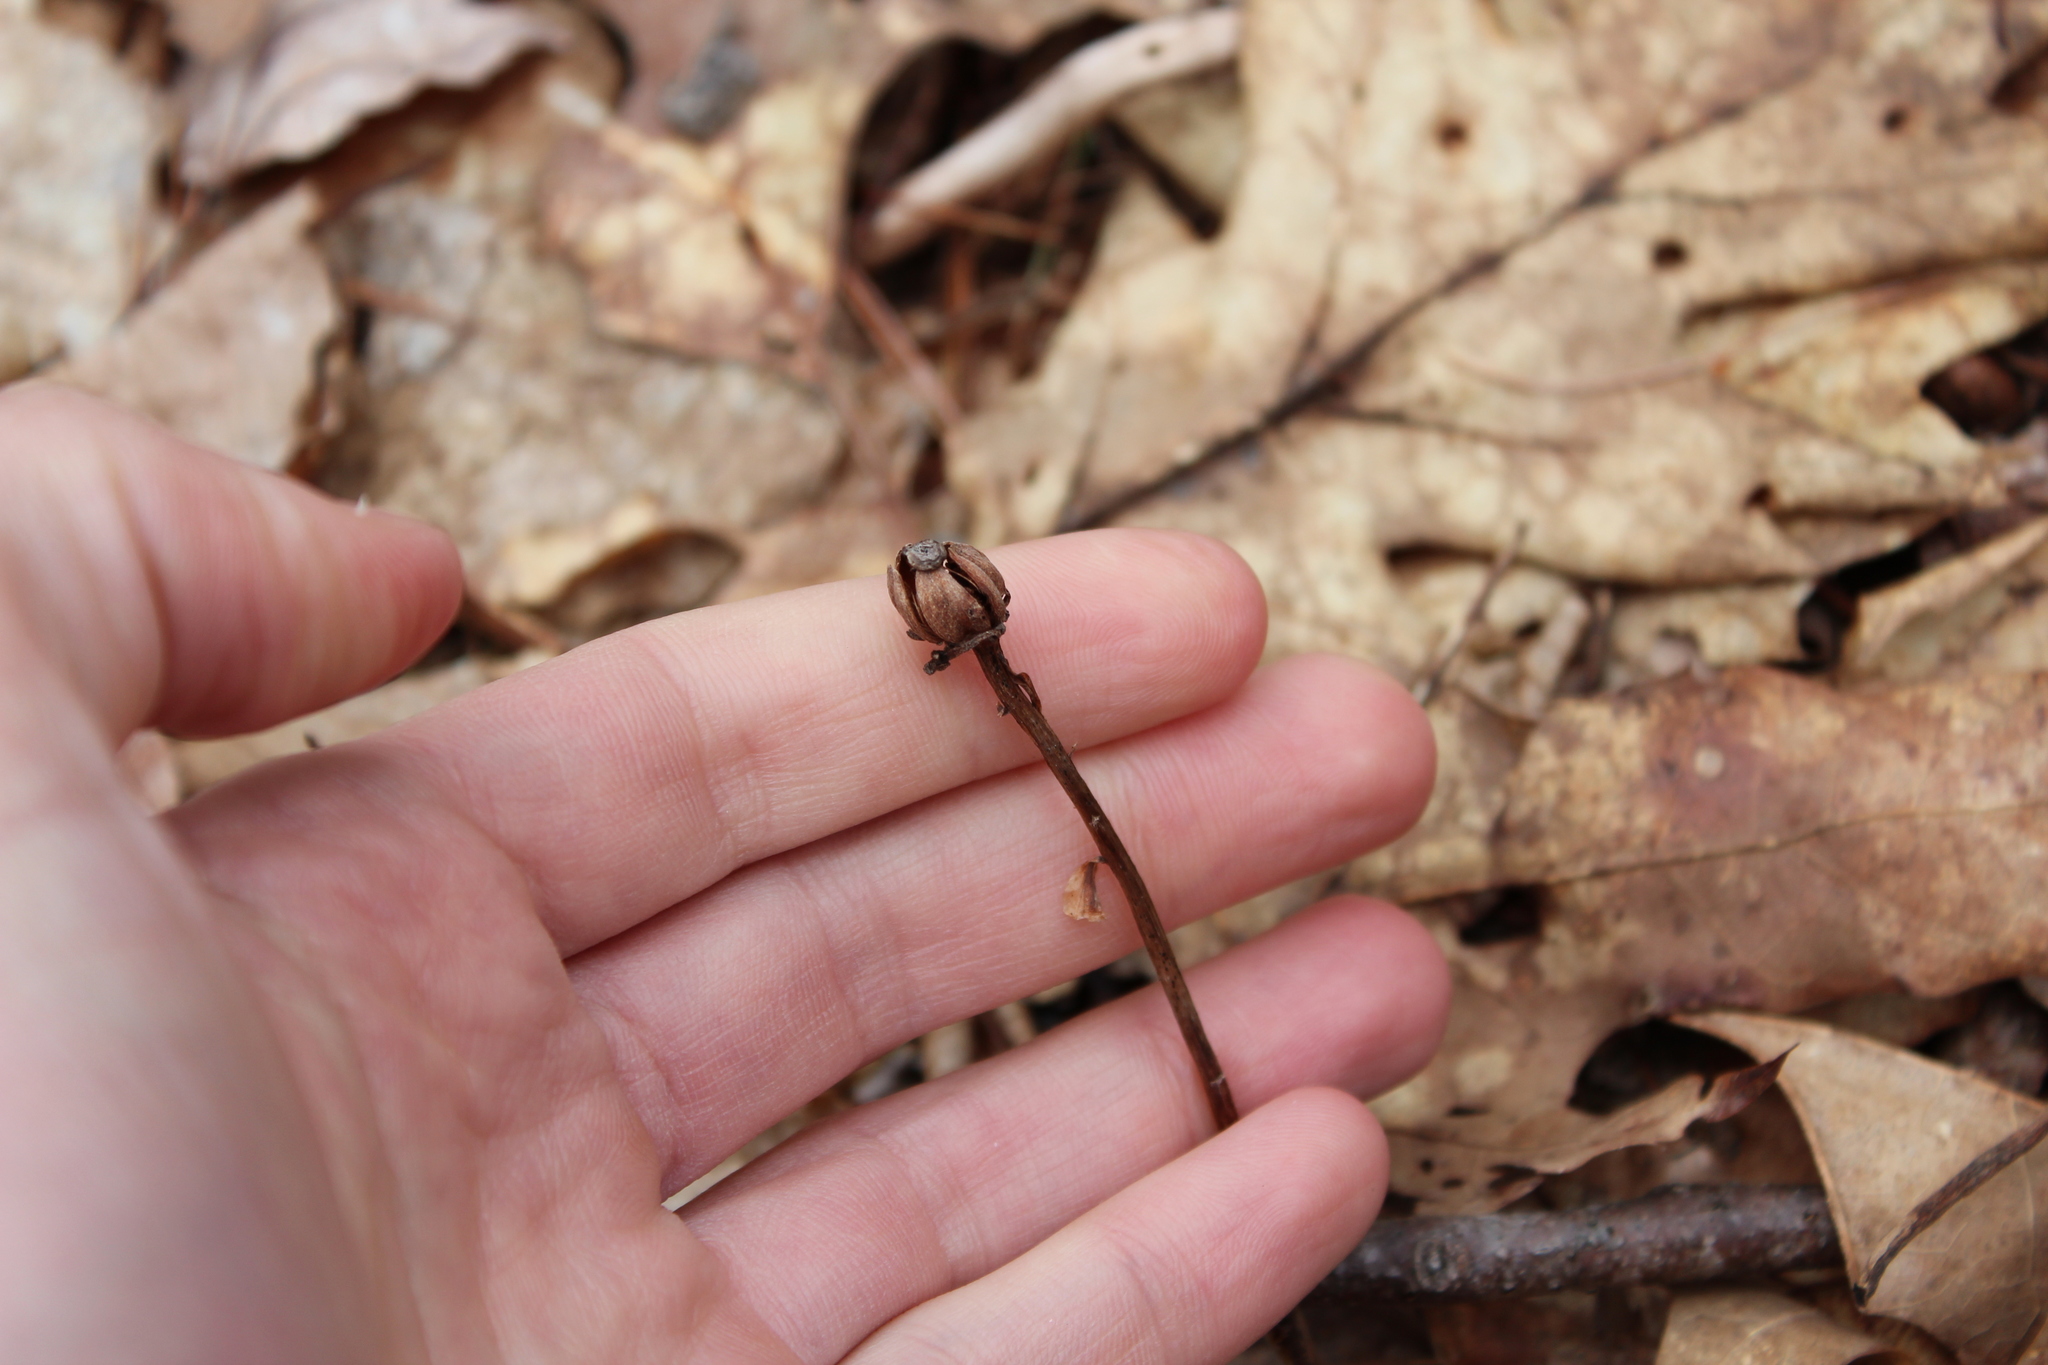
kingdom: Plantae
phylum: Tracheophyta
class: Magnoliopsida
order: Ericales
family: Ericaceae
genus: Monotropa
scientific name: Monotropa uniflora
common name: Convulsion root
